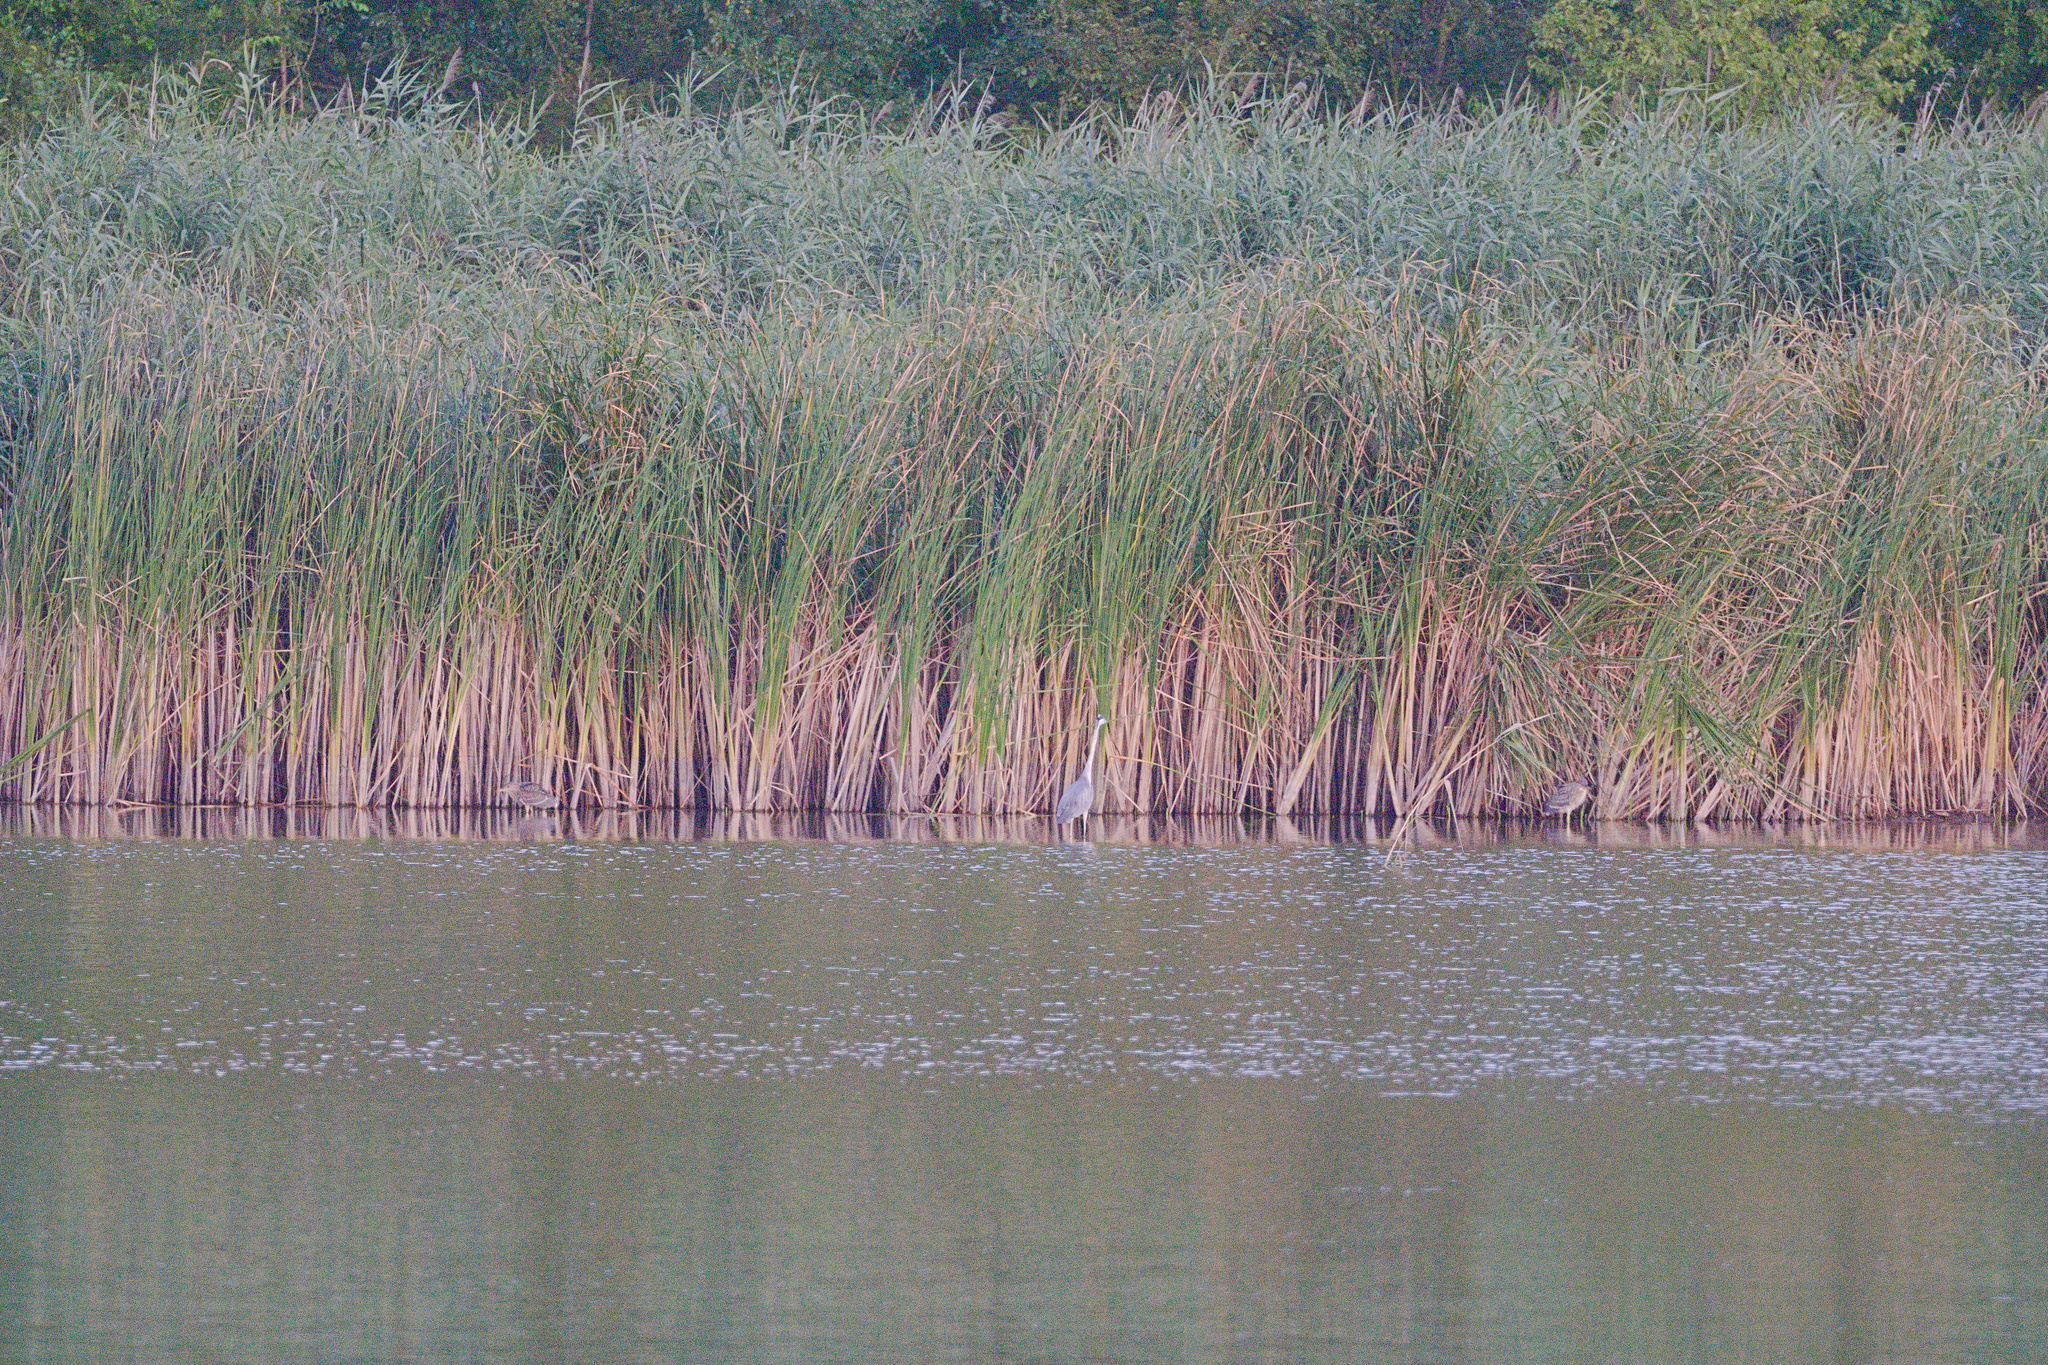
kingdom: Animalia
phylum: Chordata
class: Aves
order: Pelecaniformes
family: Ardeidae
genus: Ardea
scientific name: Ardea cinerea
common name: Grey heron
